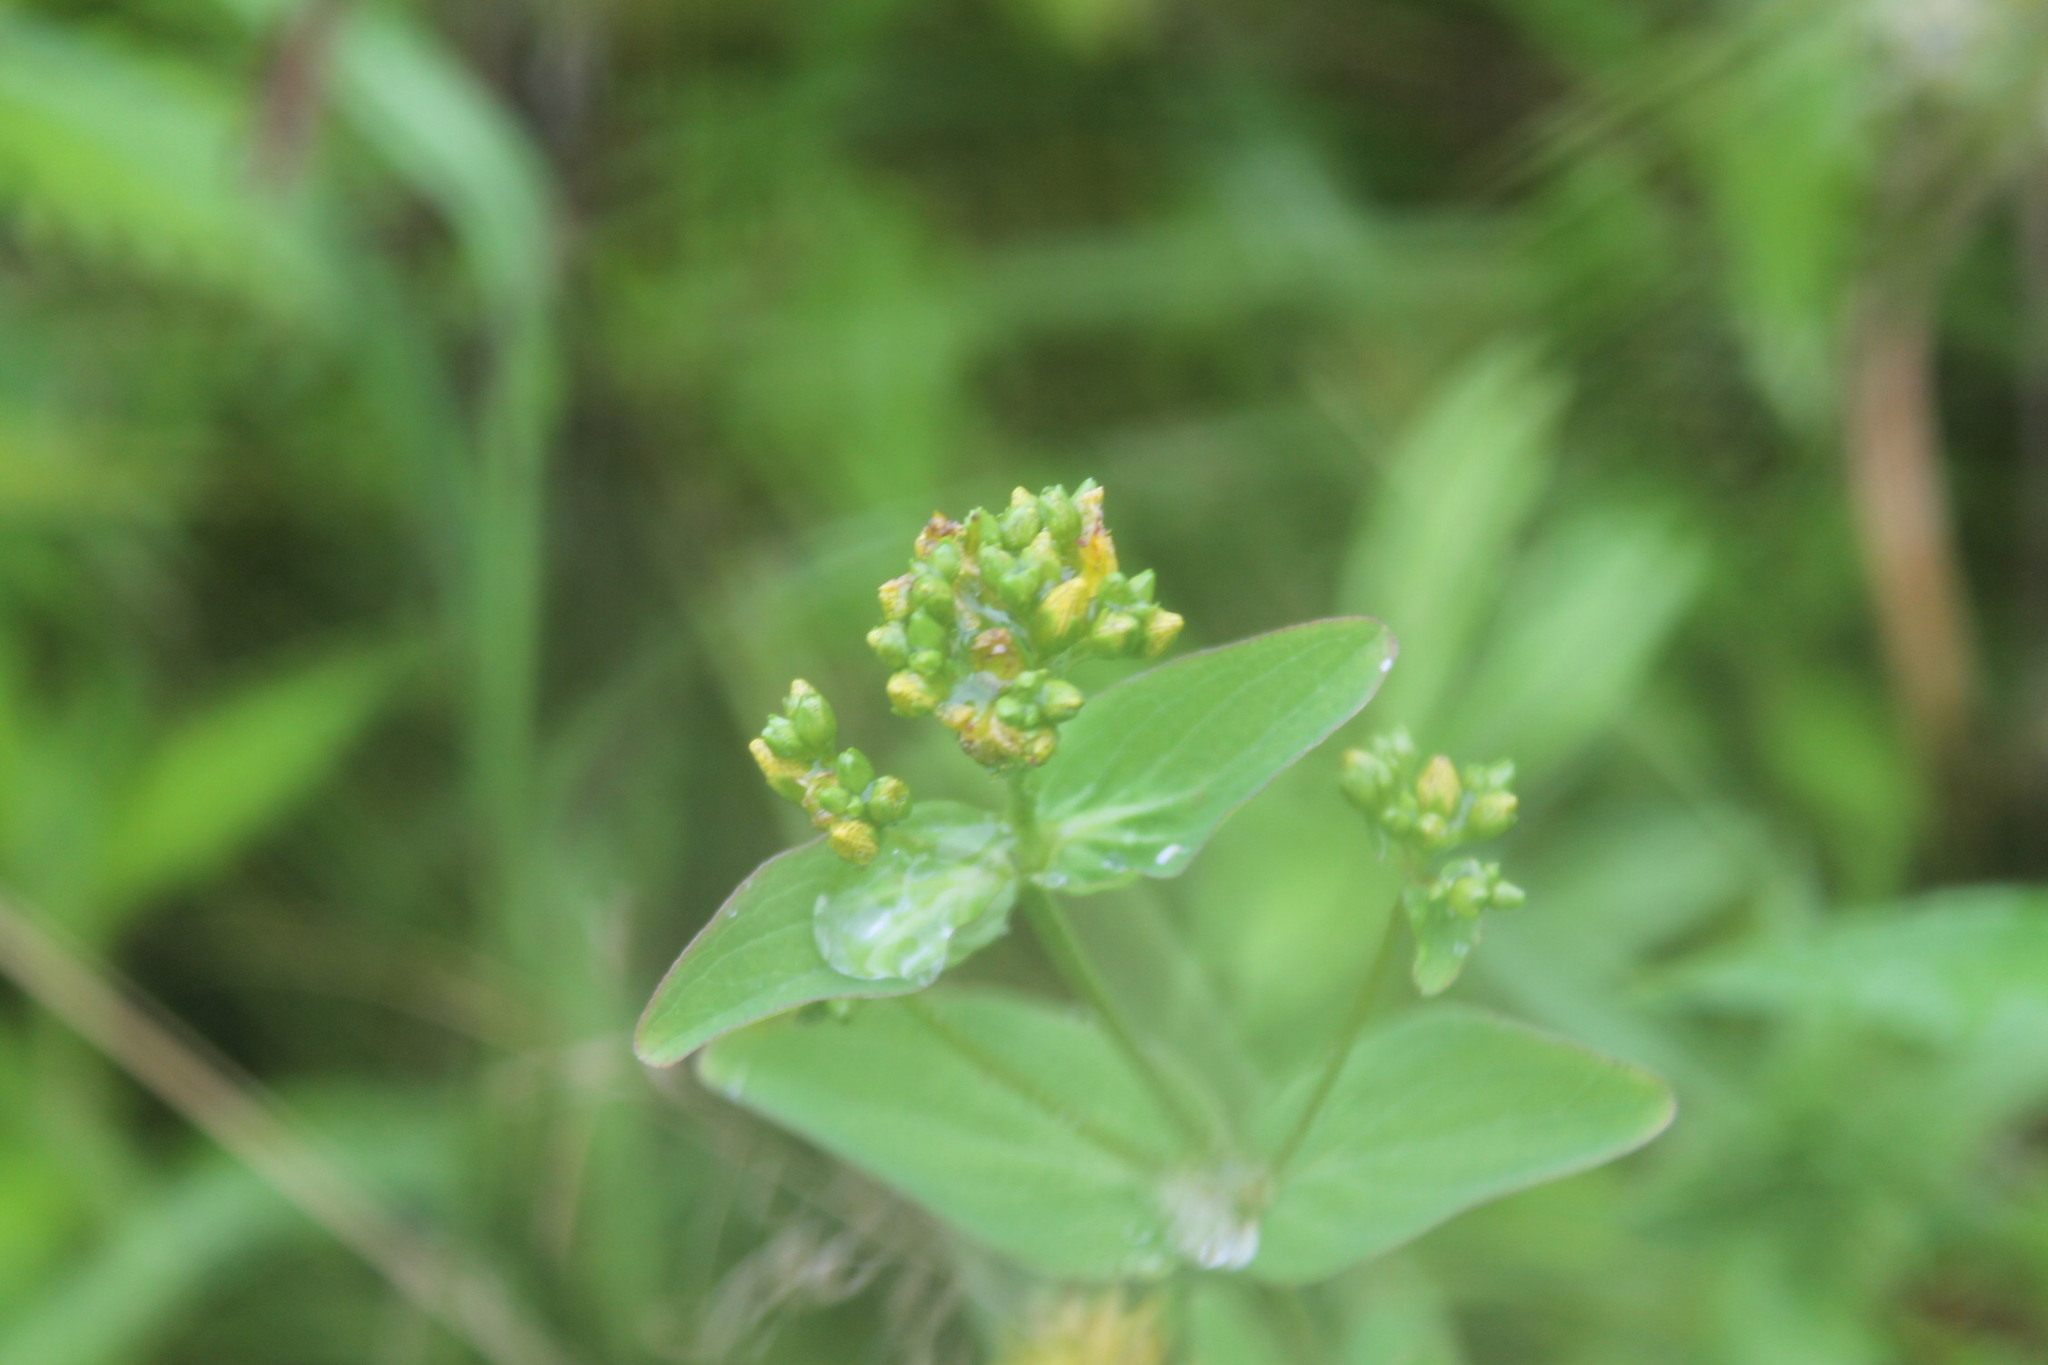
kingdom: Plantae
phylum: Tracheophyta
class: Magnoliopsida
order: Malpighiales
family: Hypericaceae
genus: Hypericum
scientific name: Hypericum punctatum
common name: Spotted st. john's-wort
